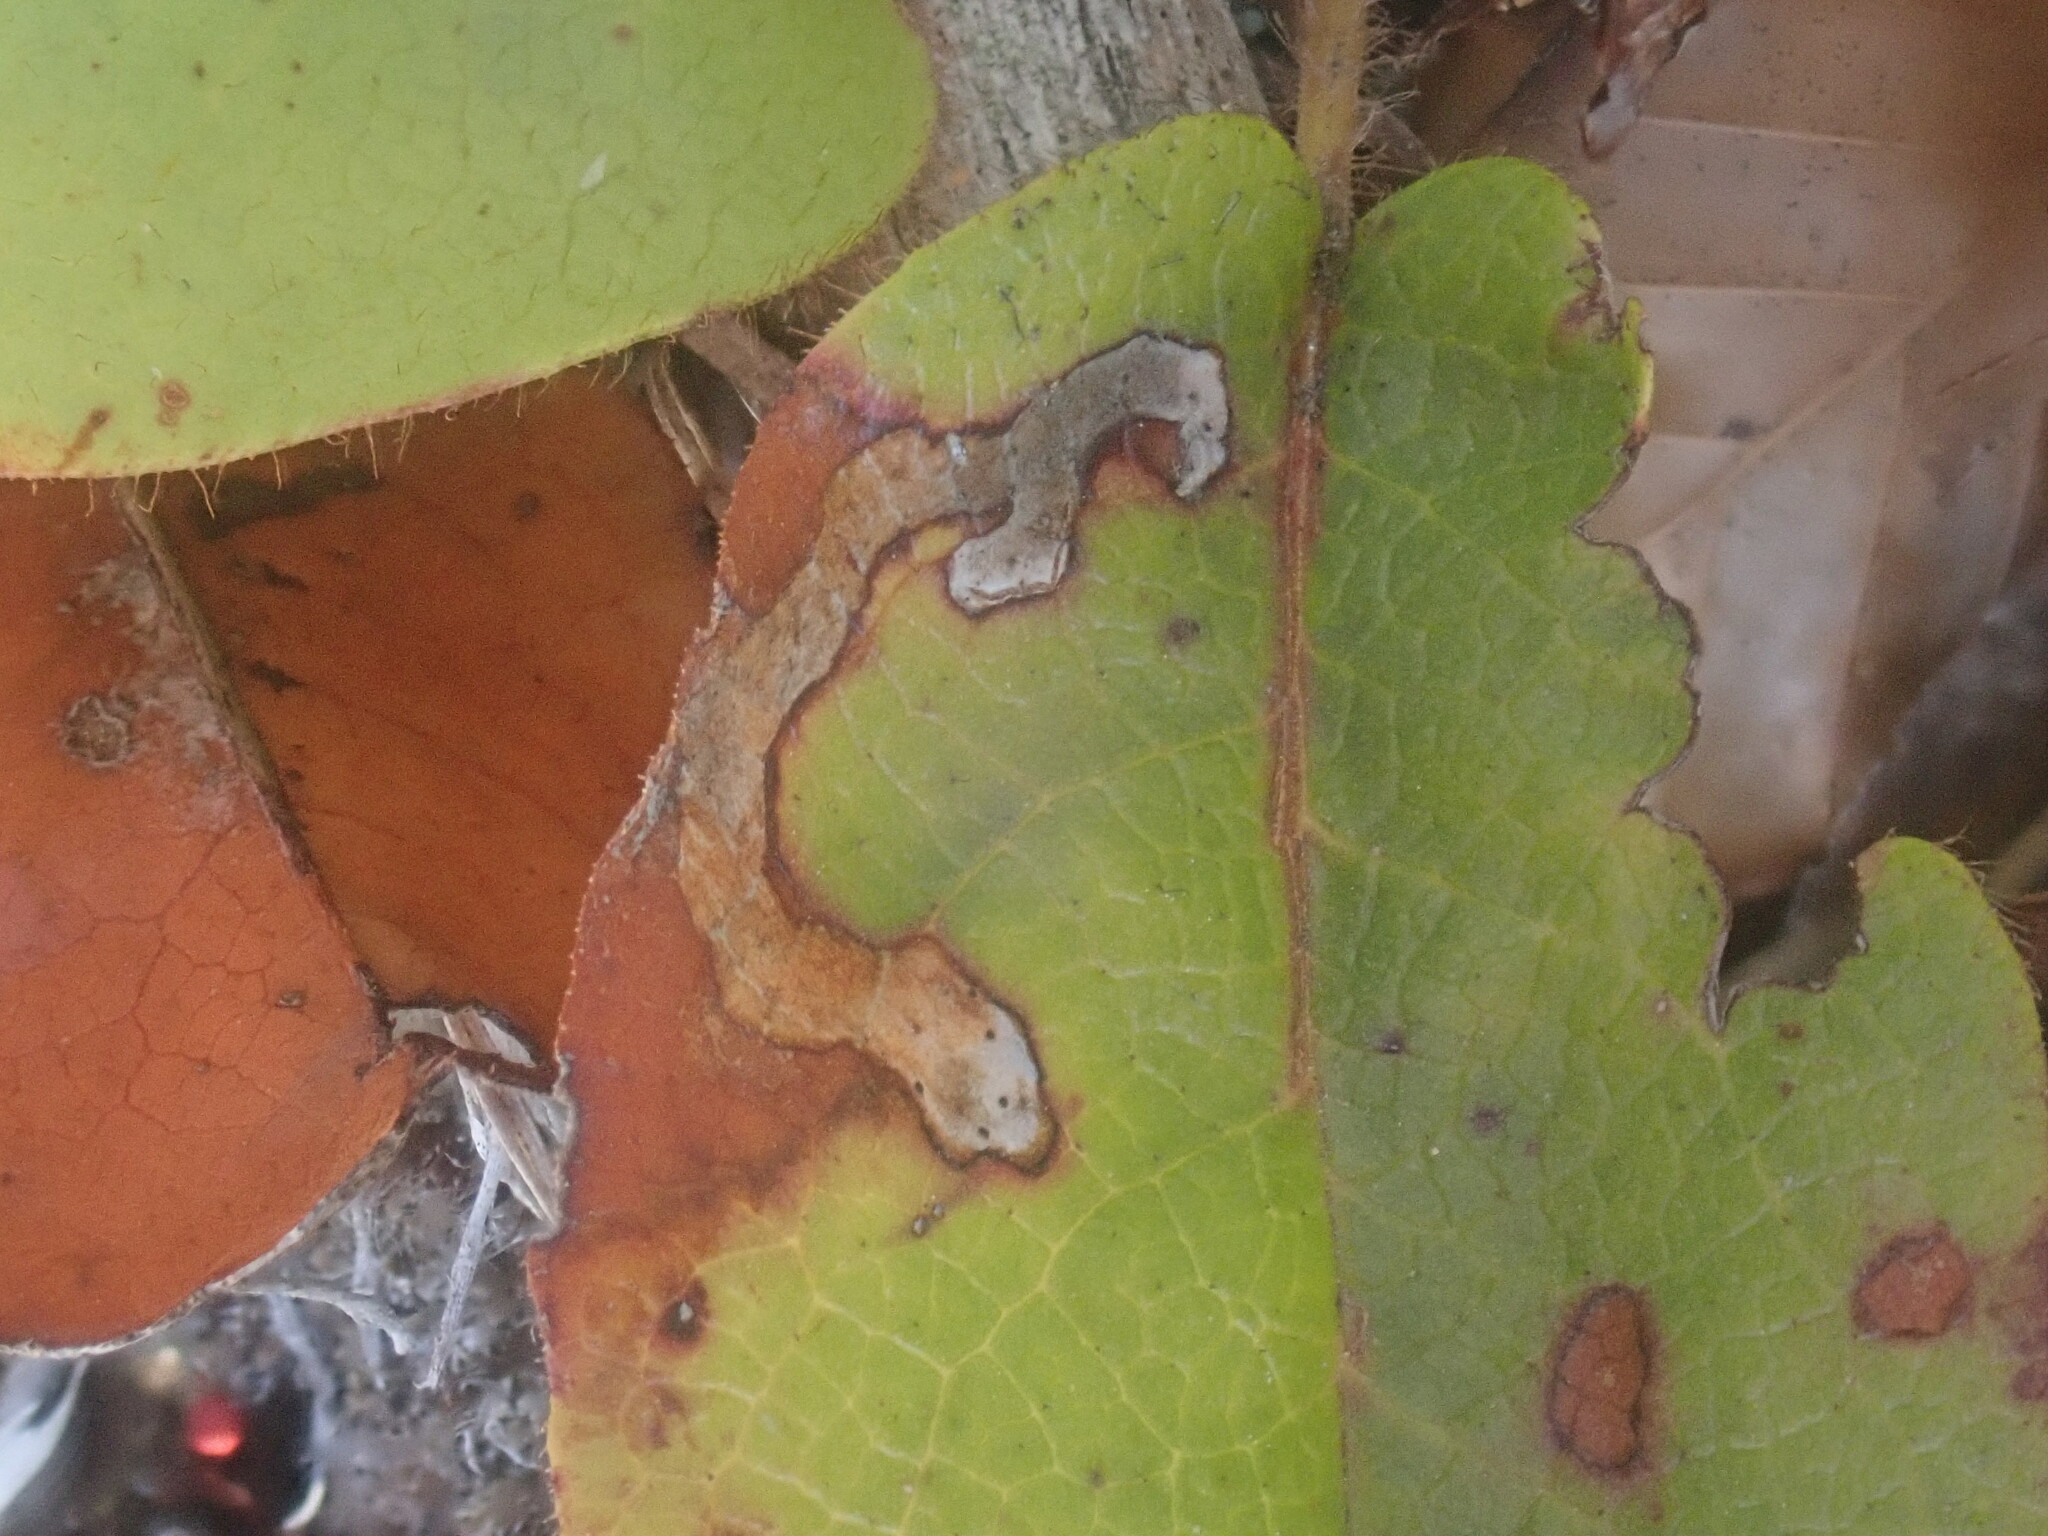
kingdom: Animalia
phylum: Arthropoda
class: Insecta
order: Coleoptera
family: Buprestidae
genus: Brachys
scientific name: Brachys
